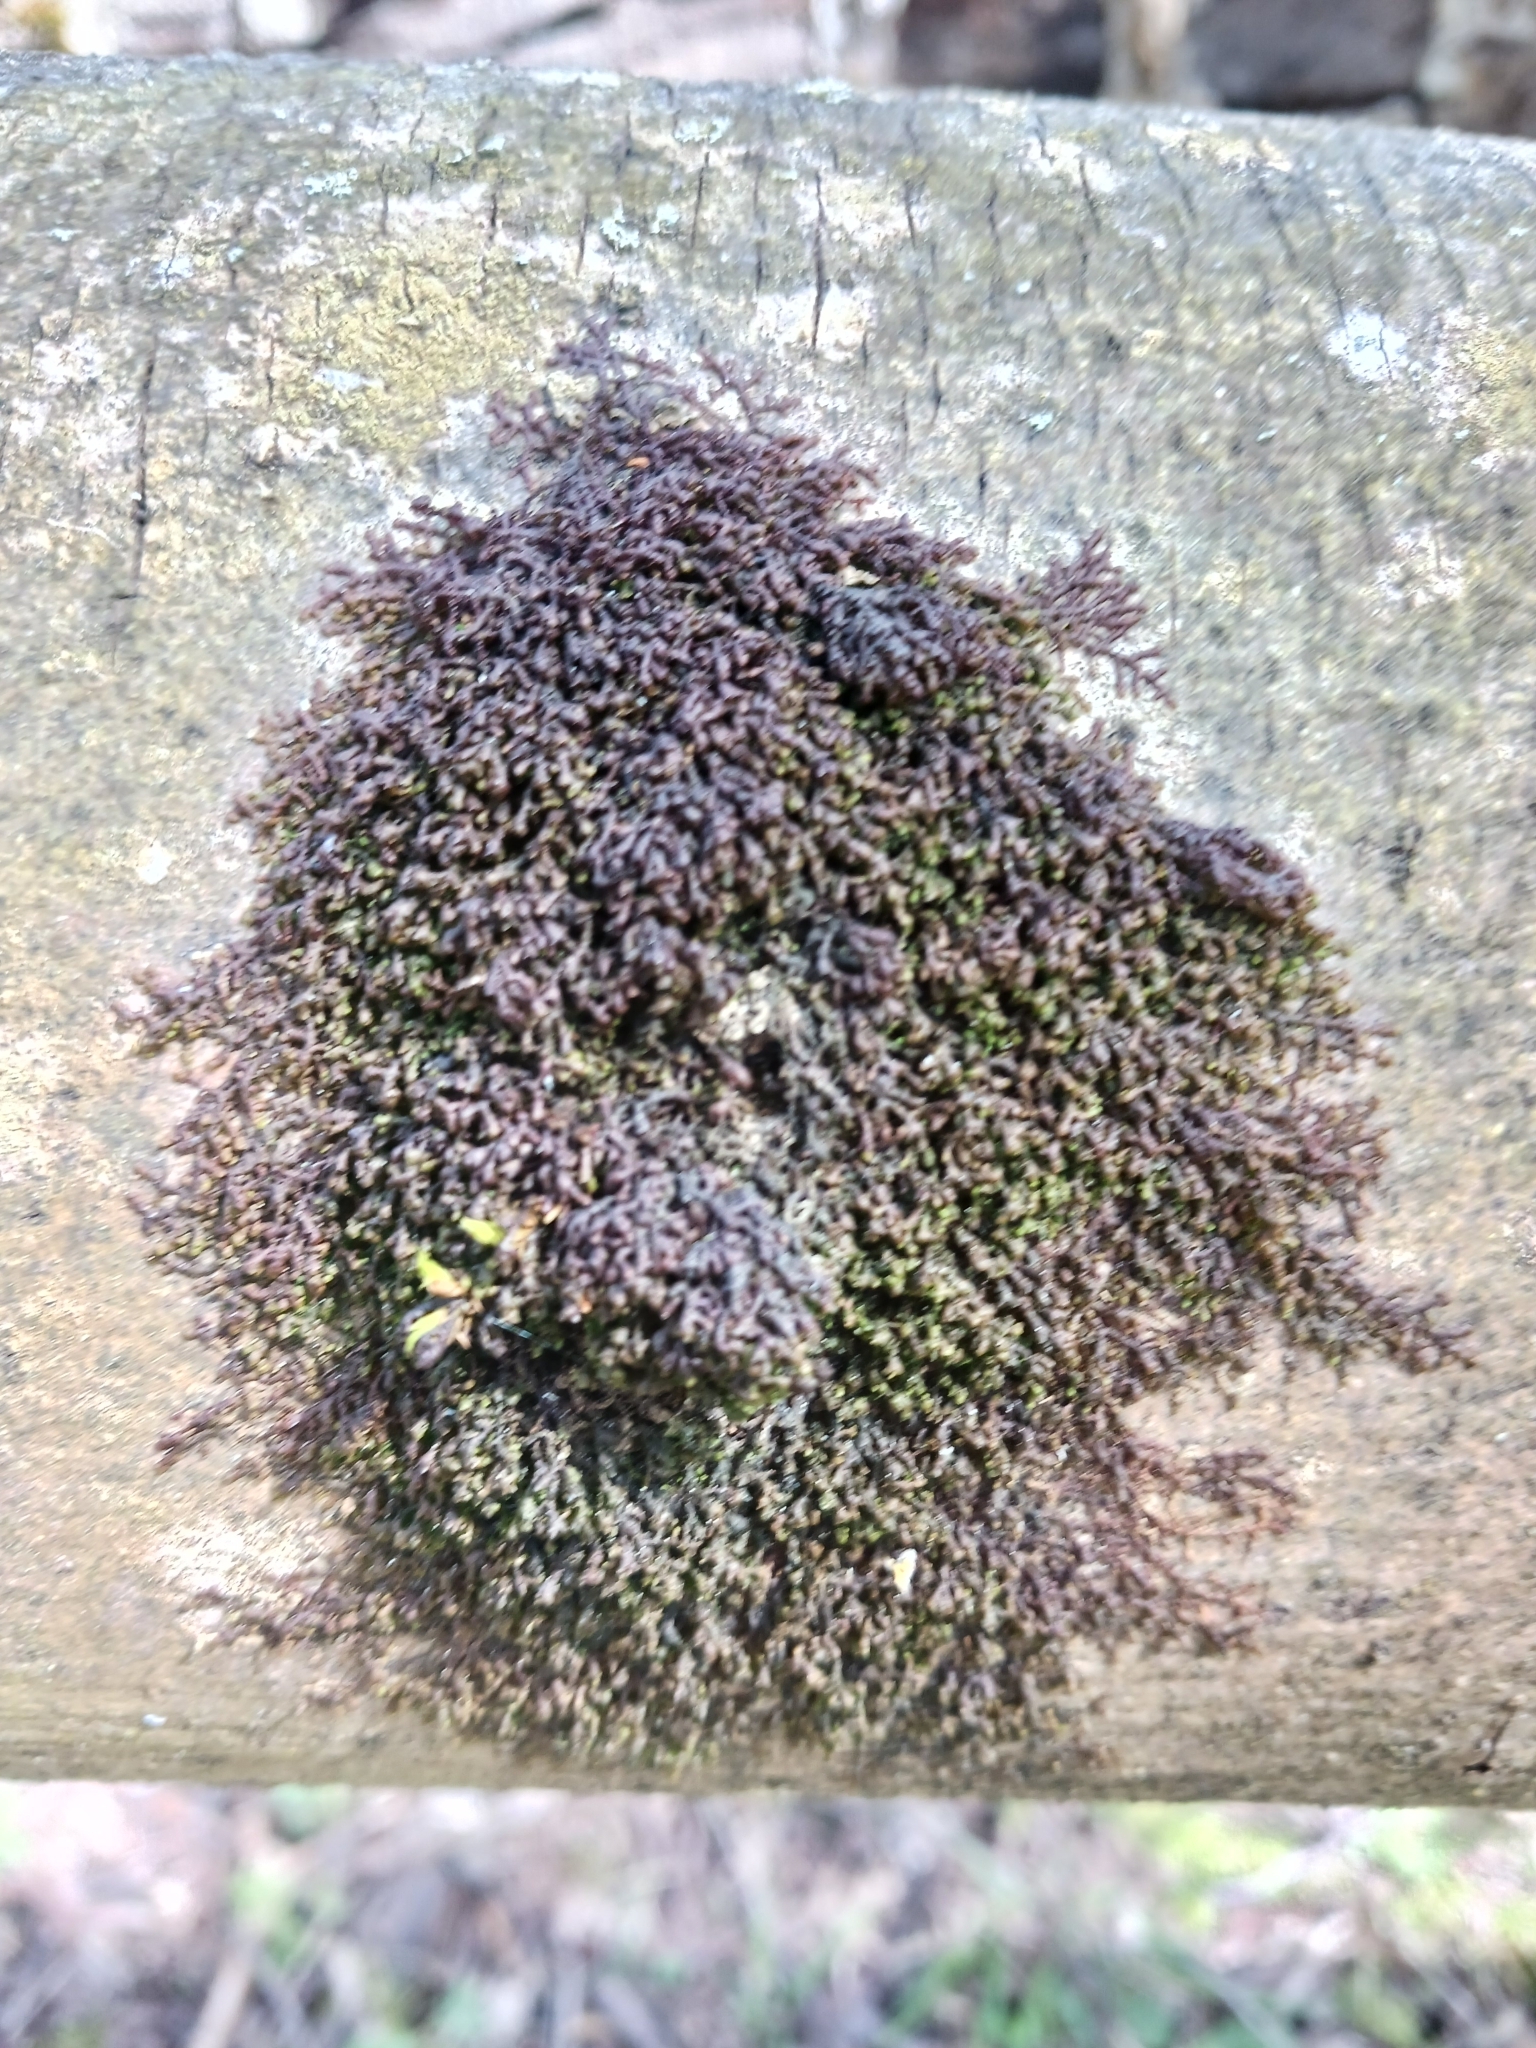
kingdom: Plantae
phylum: Marchantiophyta
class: Jungermanniopsida
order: Porellales
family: Frullaniaceae
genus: Frullania
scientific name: Frullania dilatata
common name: Dilated scalewort
